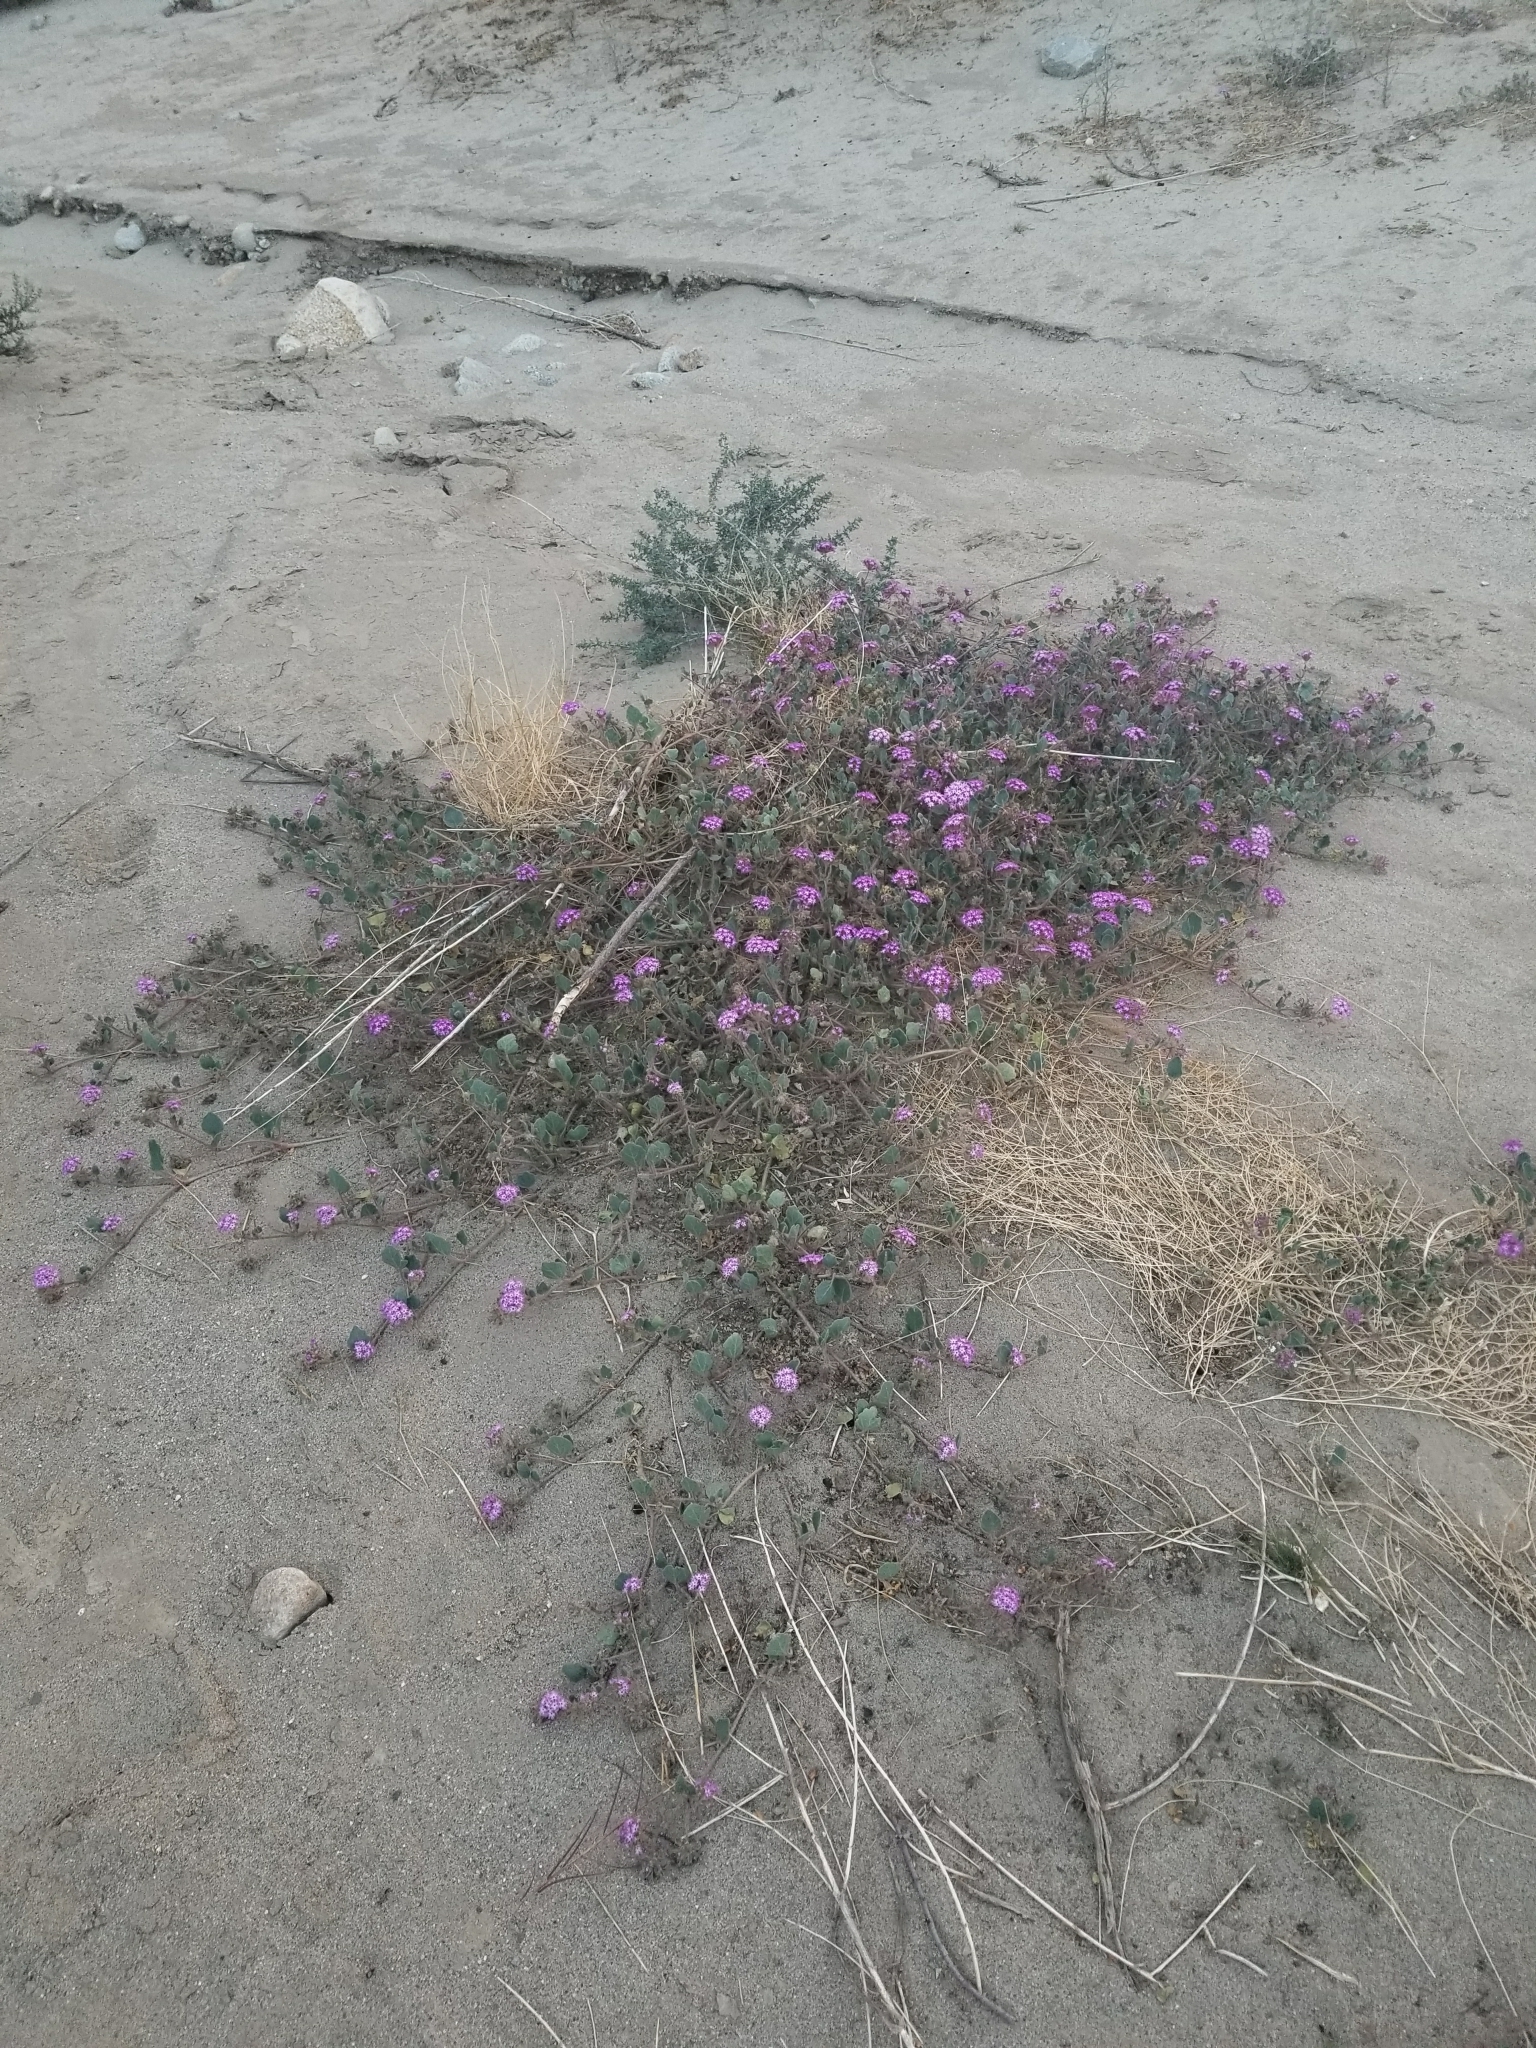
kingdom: Plantae
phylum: Tracheophyta
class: Magnoliopsida
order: Caryophyllales
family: Nyctaginaceae
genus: Abronia
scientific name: Abronia villosa
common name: Desert sand-verbena
